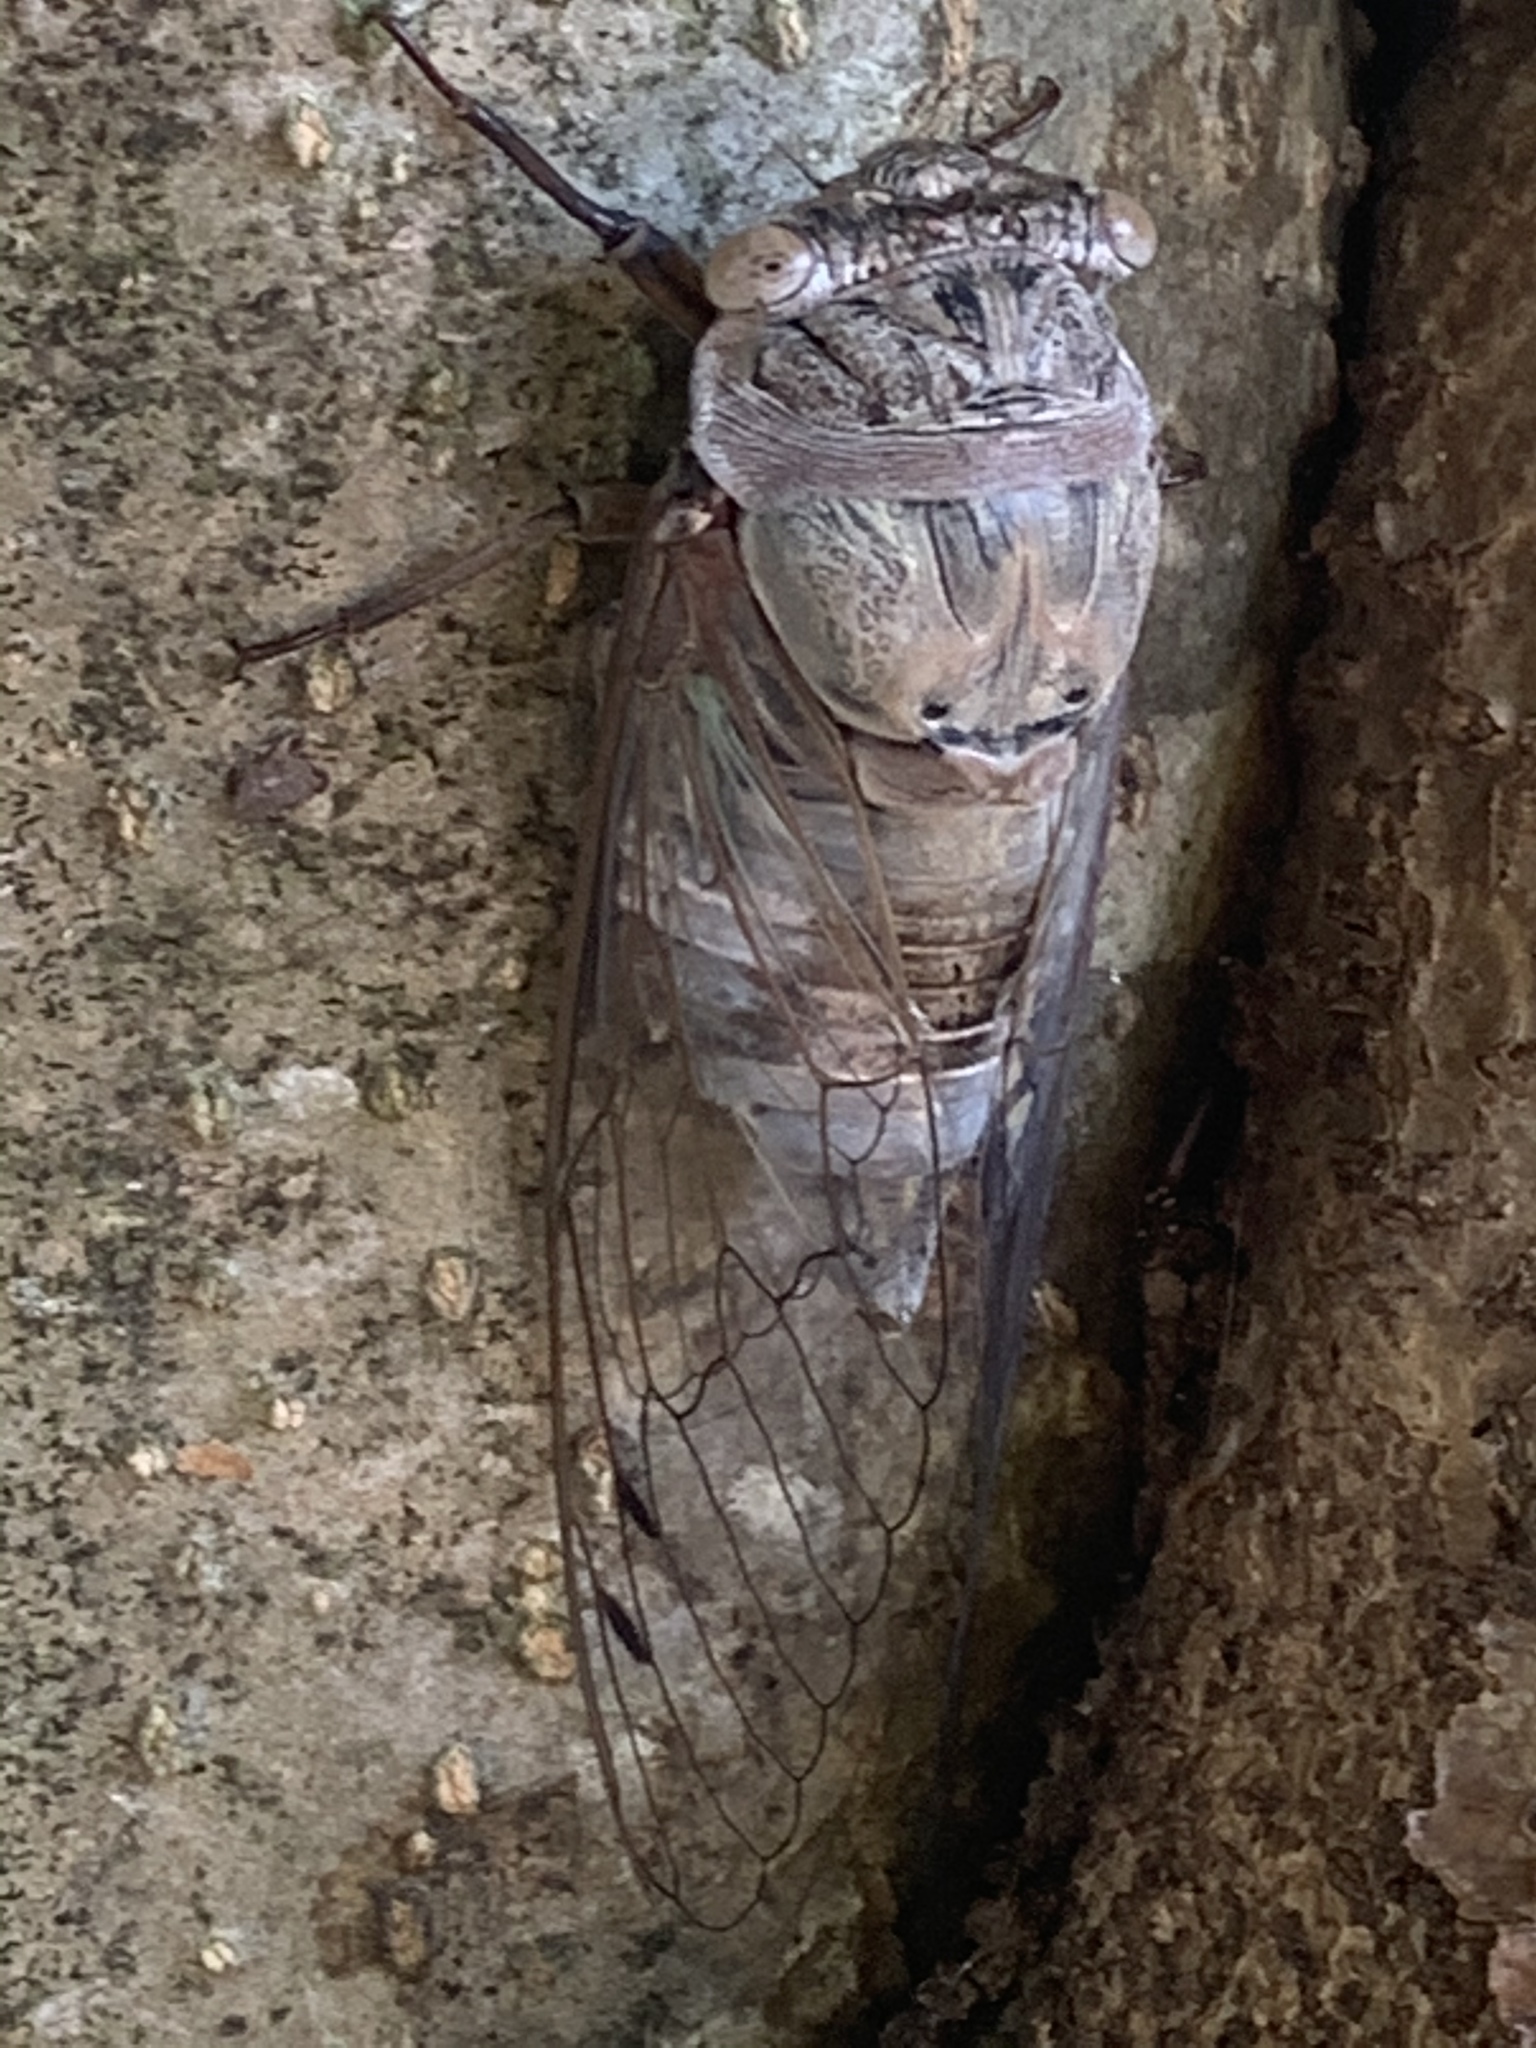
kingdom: Animalia
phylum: Arthropoda
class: Insecta
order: Hemiptera
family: Cicadidae
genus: Diceroprocta
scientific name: Diceroprocta grossa
